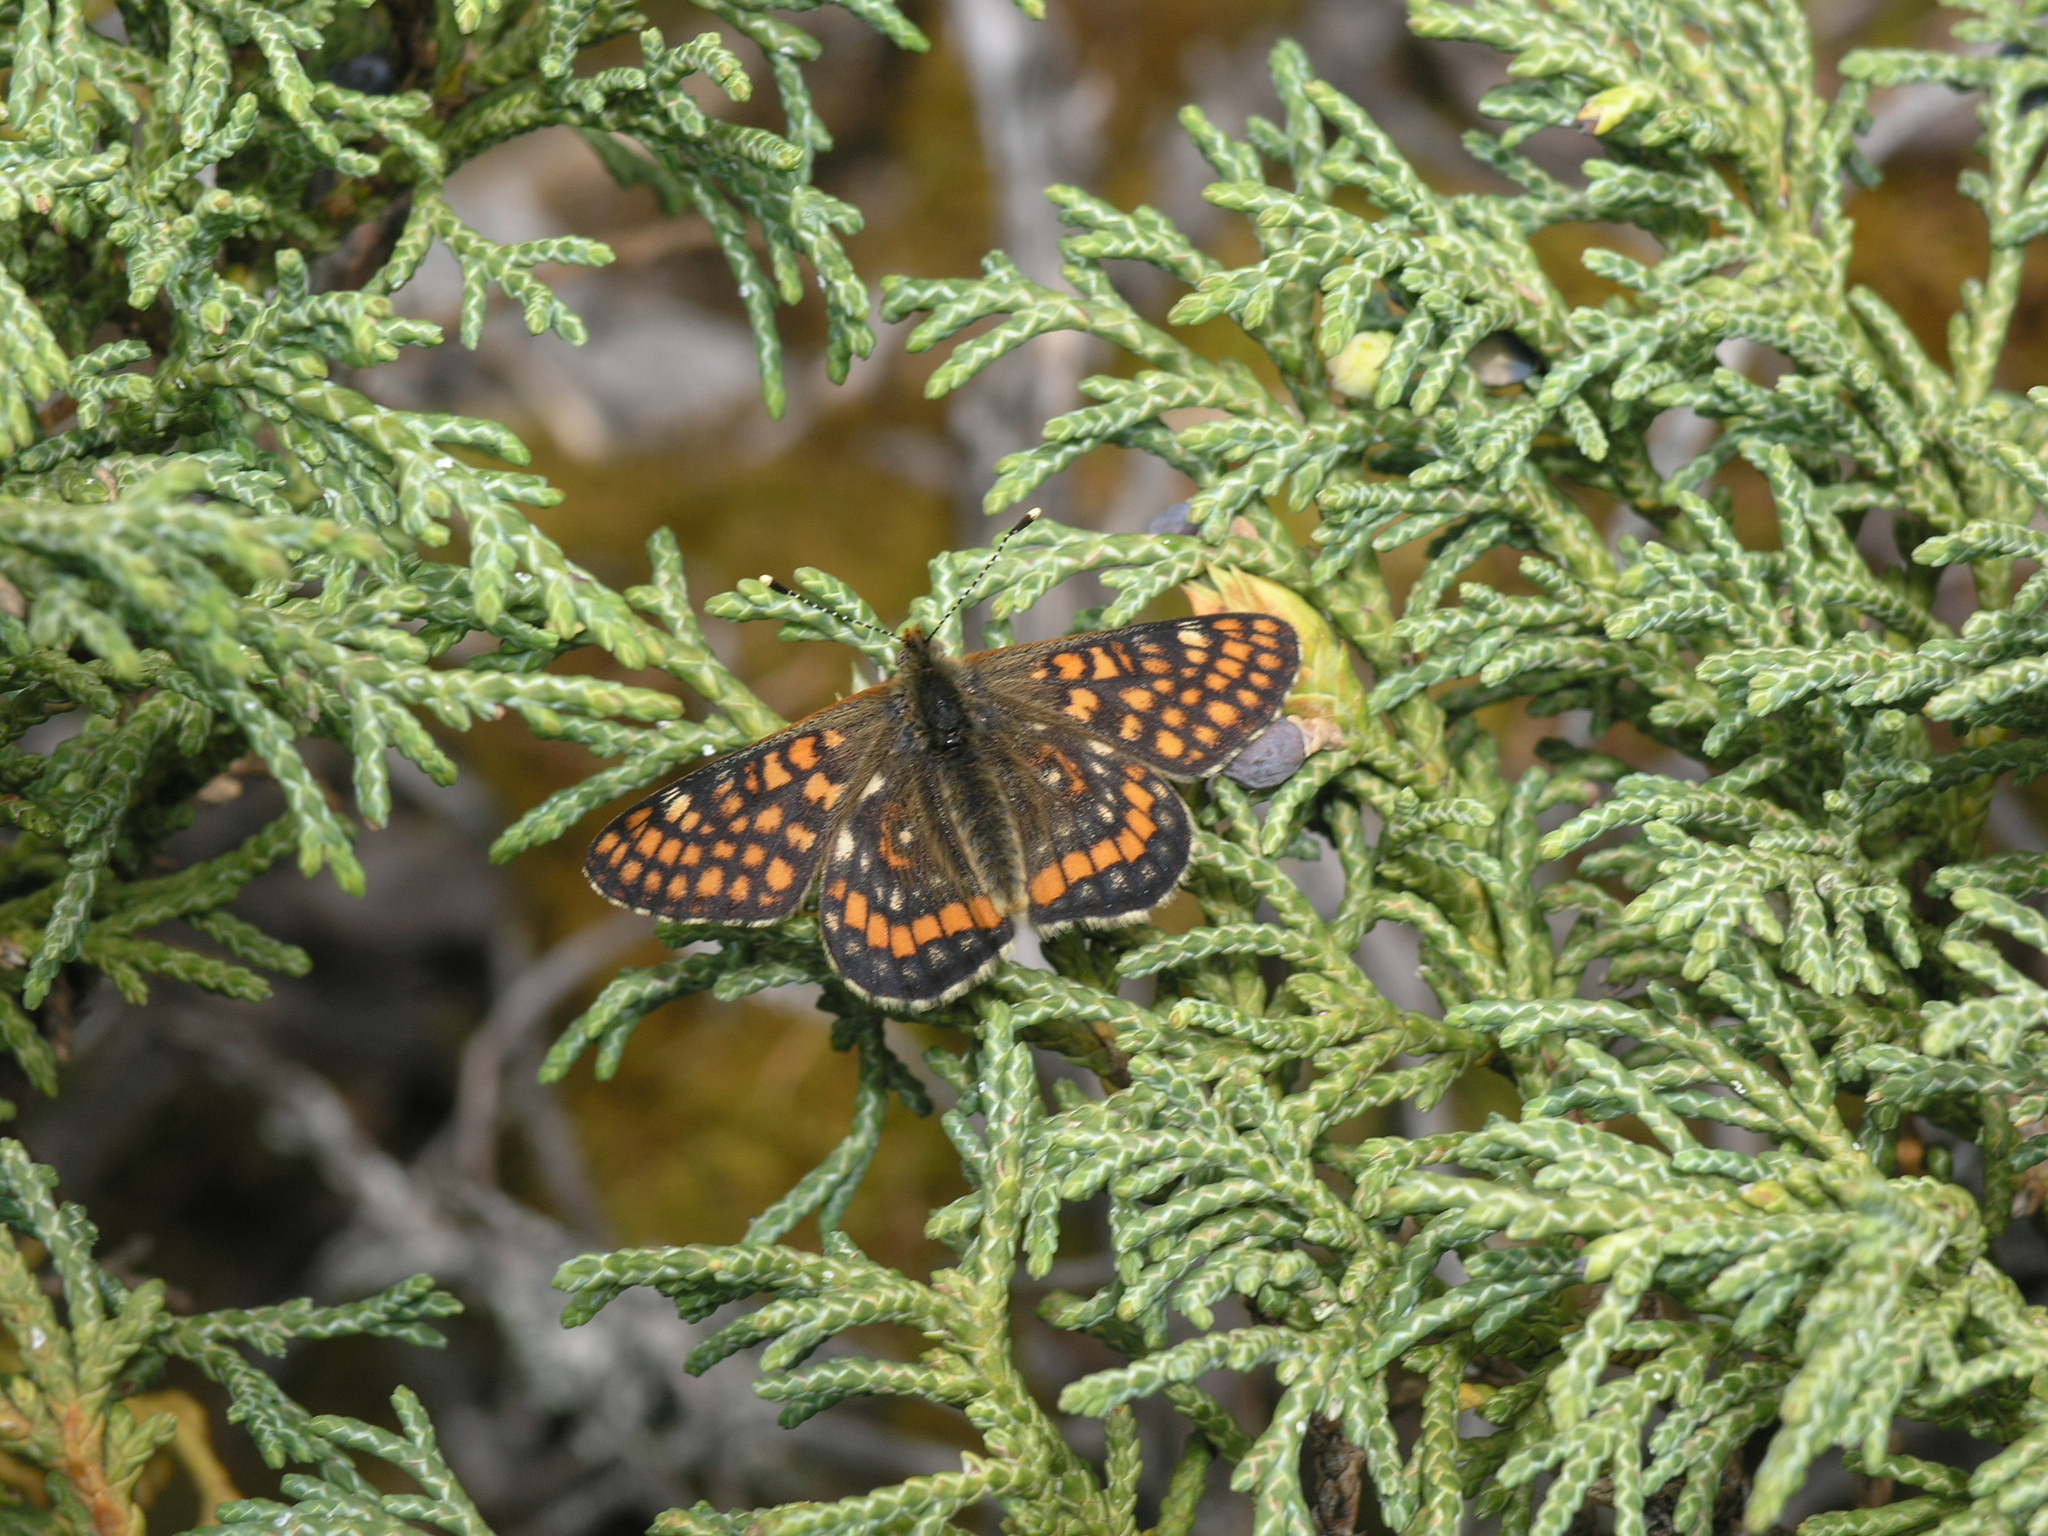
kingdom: Plantae
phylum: Tracheophyta
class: Pinopsida
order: Pinales
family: Cupressaceae
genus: Juniperus
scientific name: Juniperus pseudosabina
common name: Turkestan juniper
